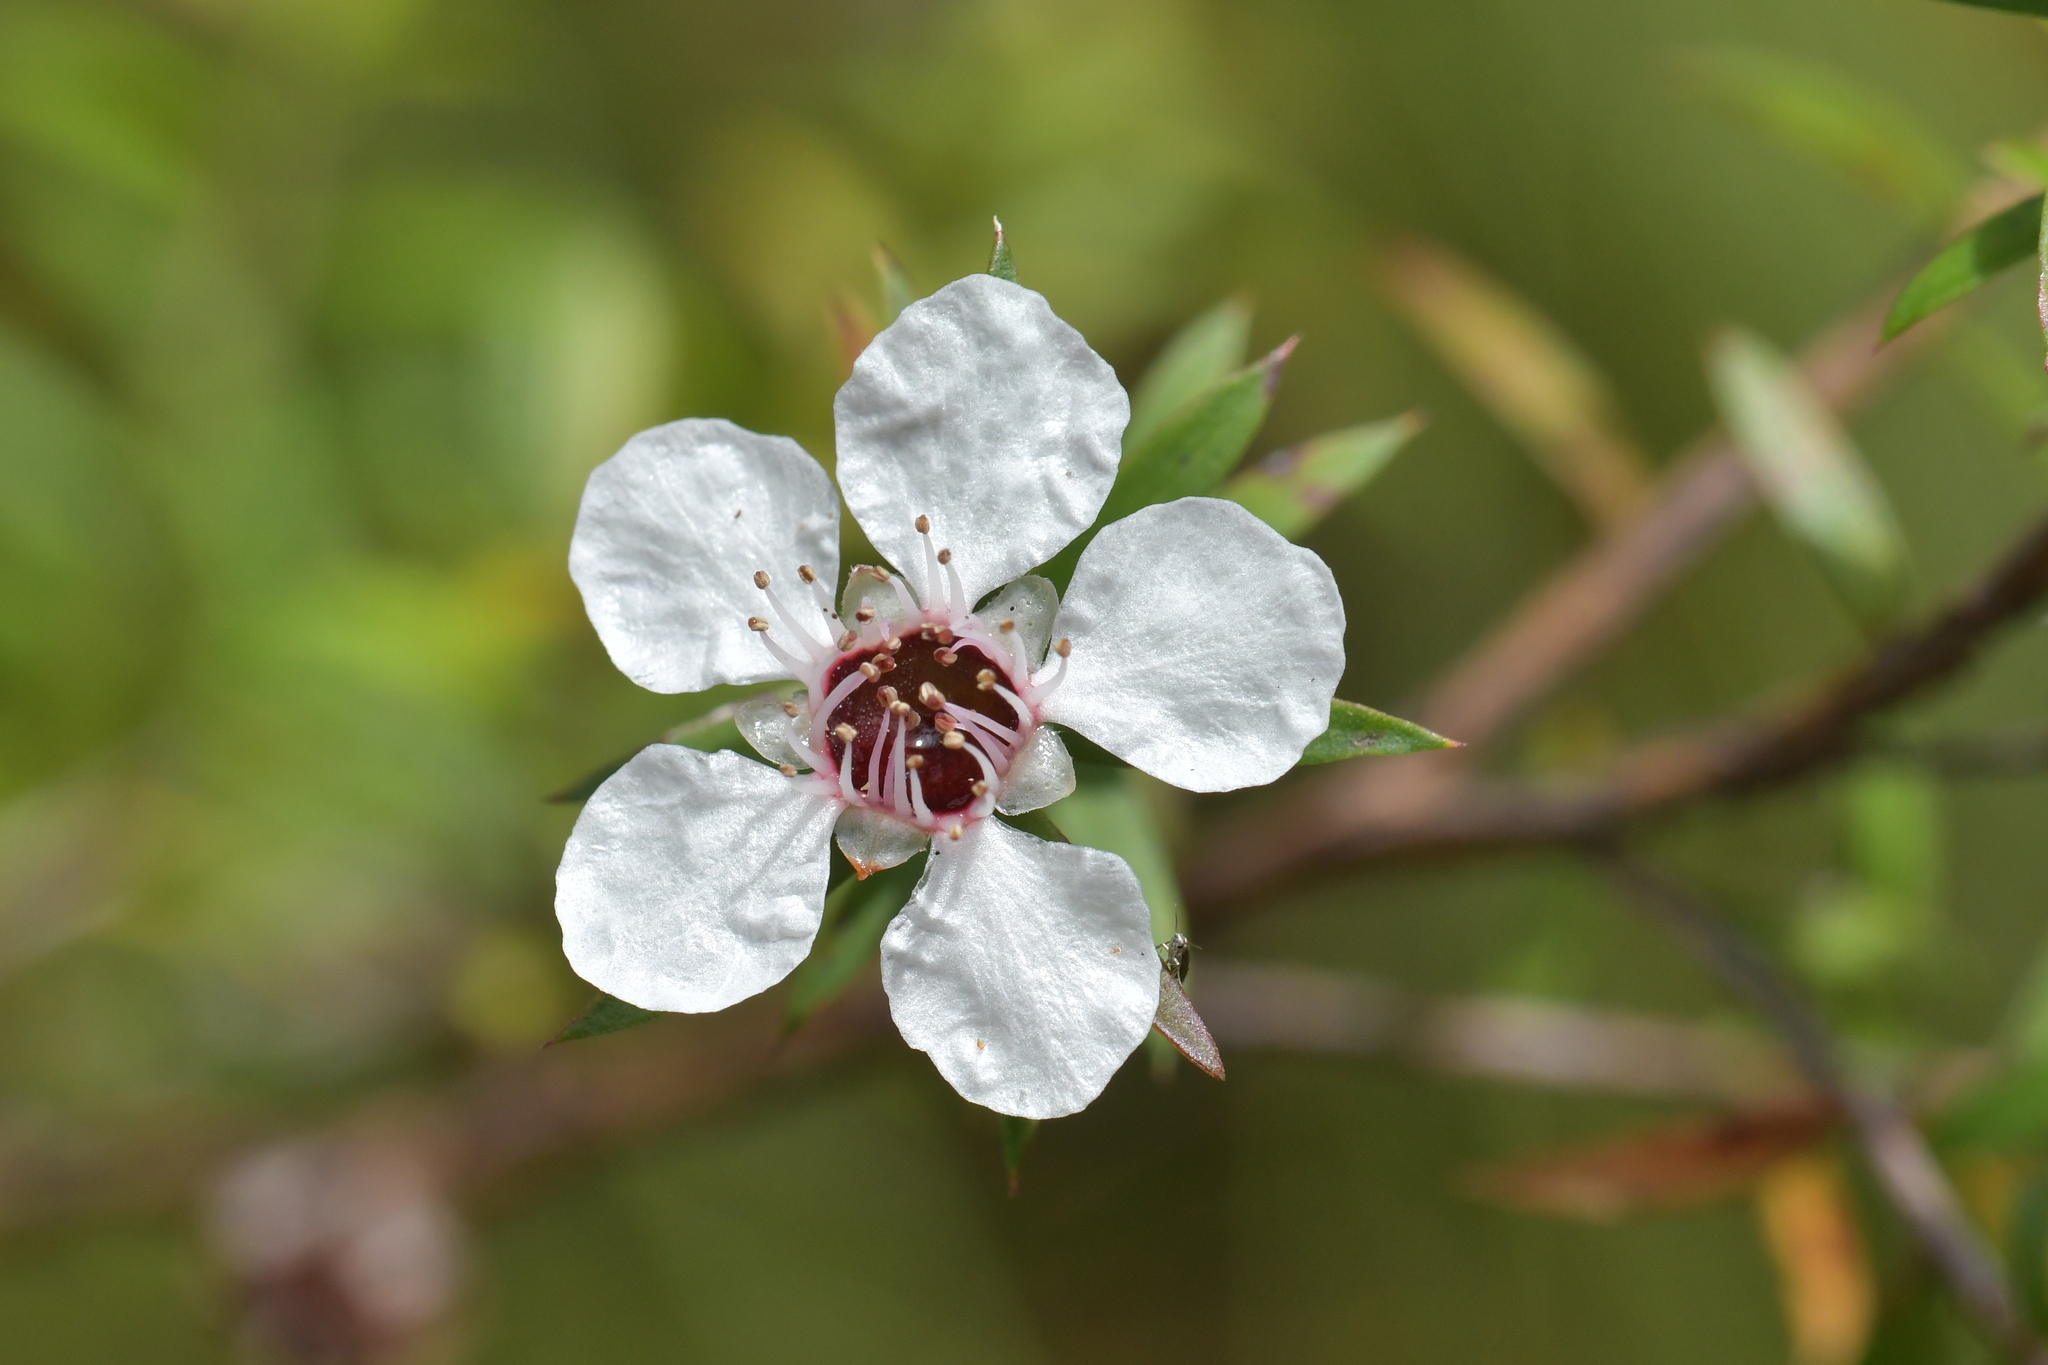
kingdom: Plantae
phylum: Tracheophyta
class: Magnoliopsida
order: Myrtales
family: Myrtaceae
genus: Leptospermum
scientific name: Leptospermum scoparium
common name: Broom tea-tree
